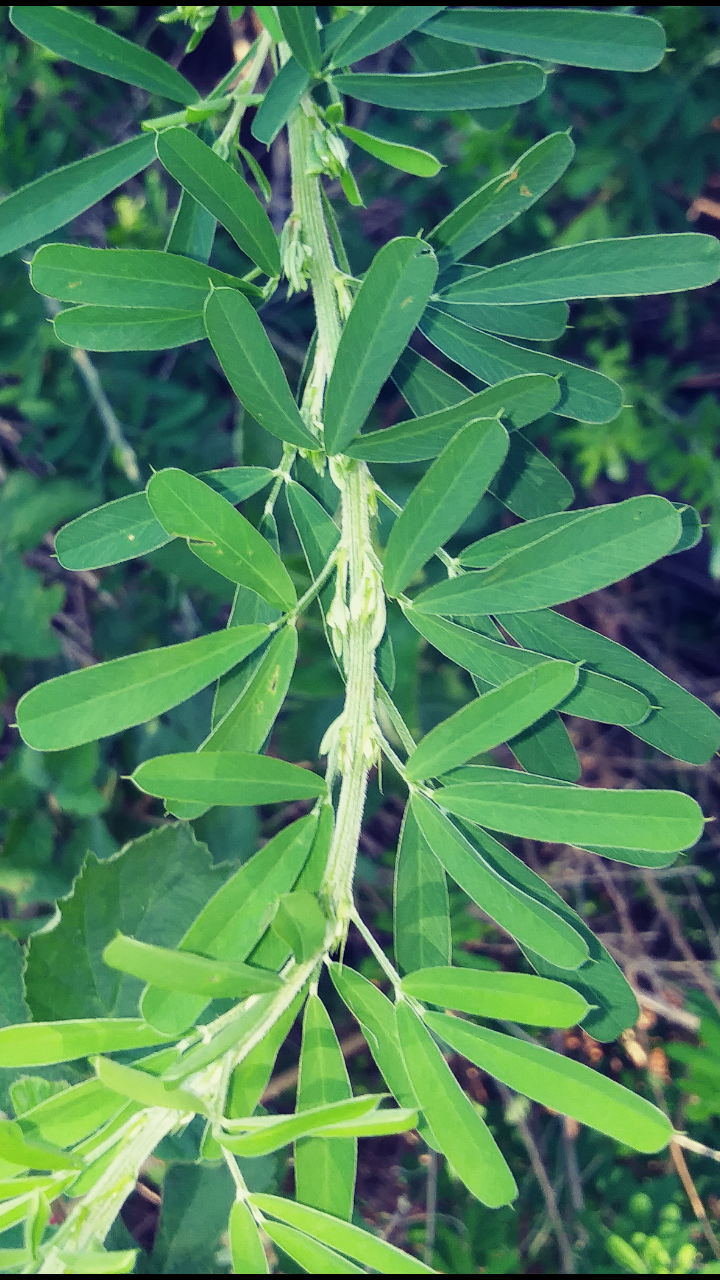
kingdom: Plantae
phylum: Tracheophyta
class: Magnoliopsida
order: Fabales
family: Fabaceae
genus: Lespedeza
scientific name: Lespedeza cuneata
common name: Chinese bush-clover
